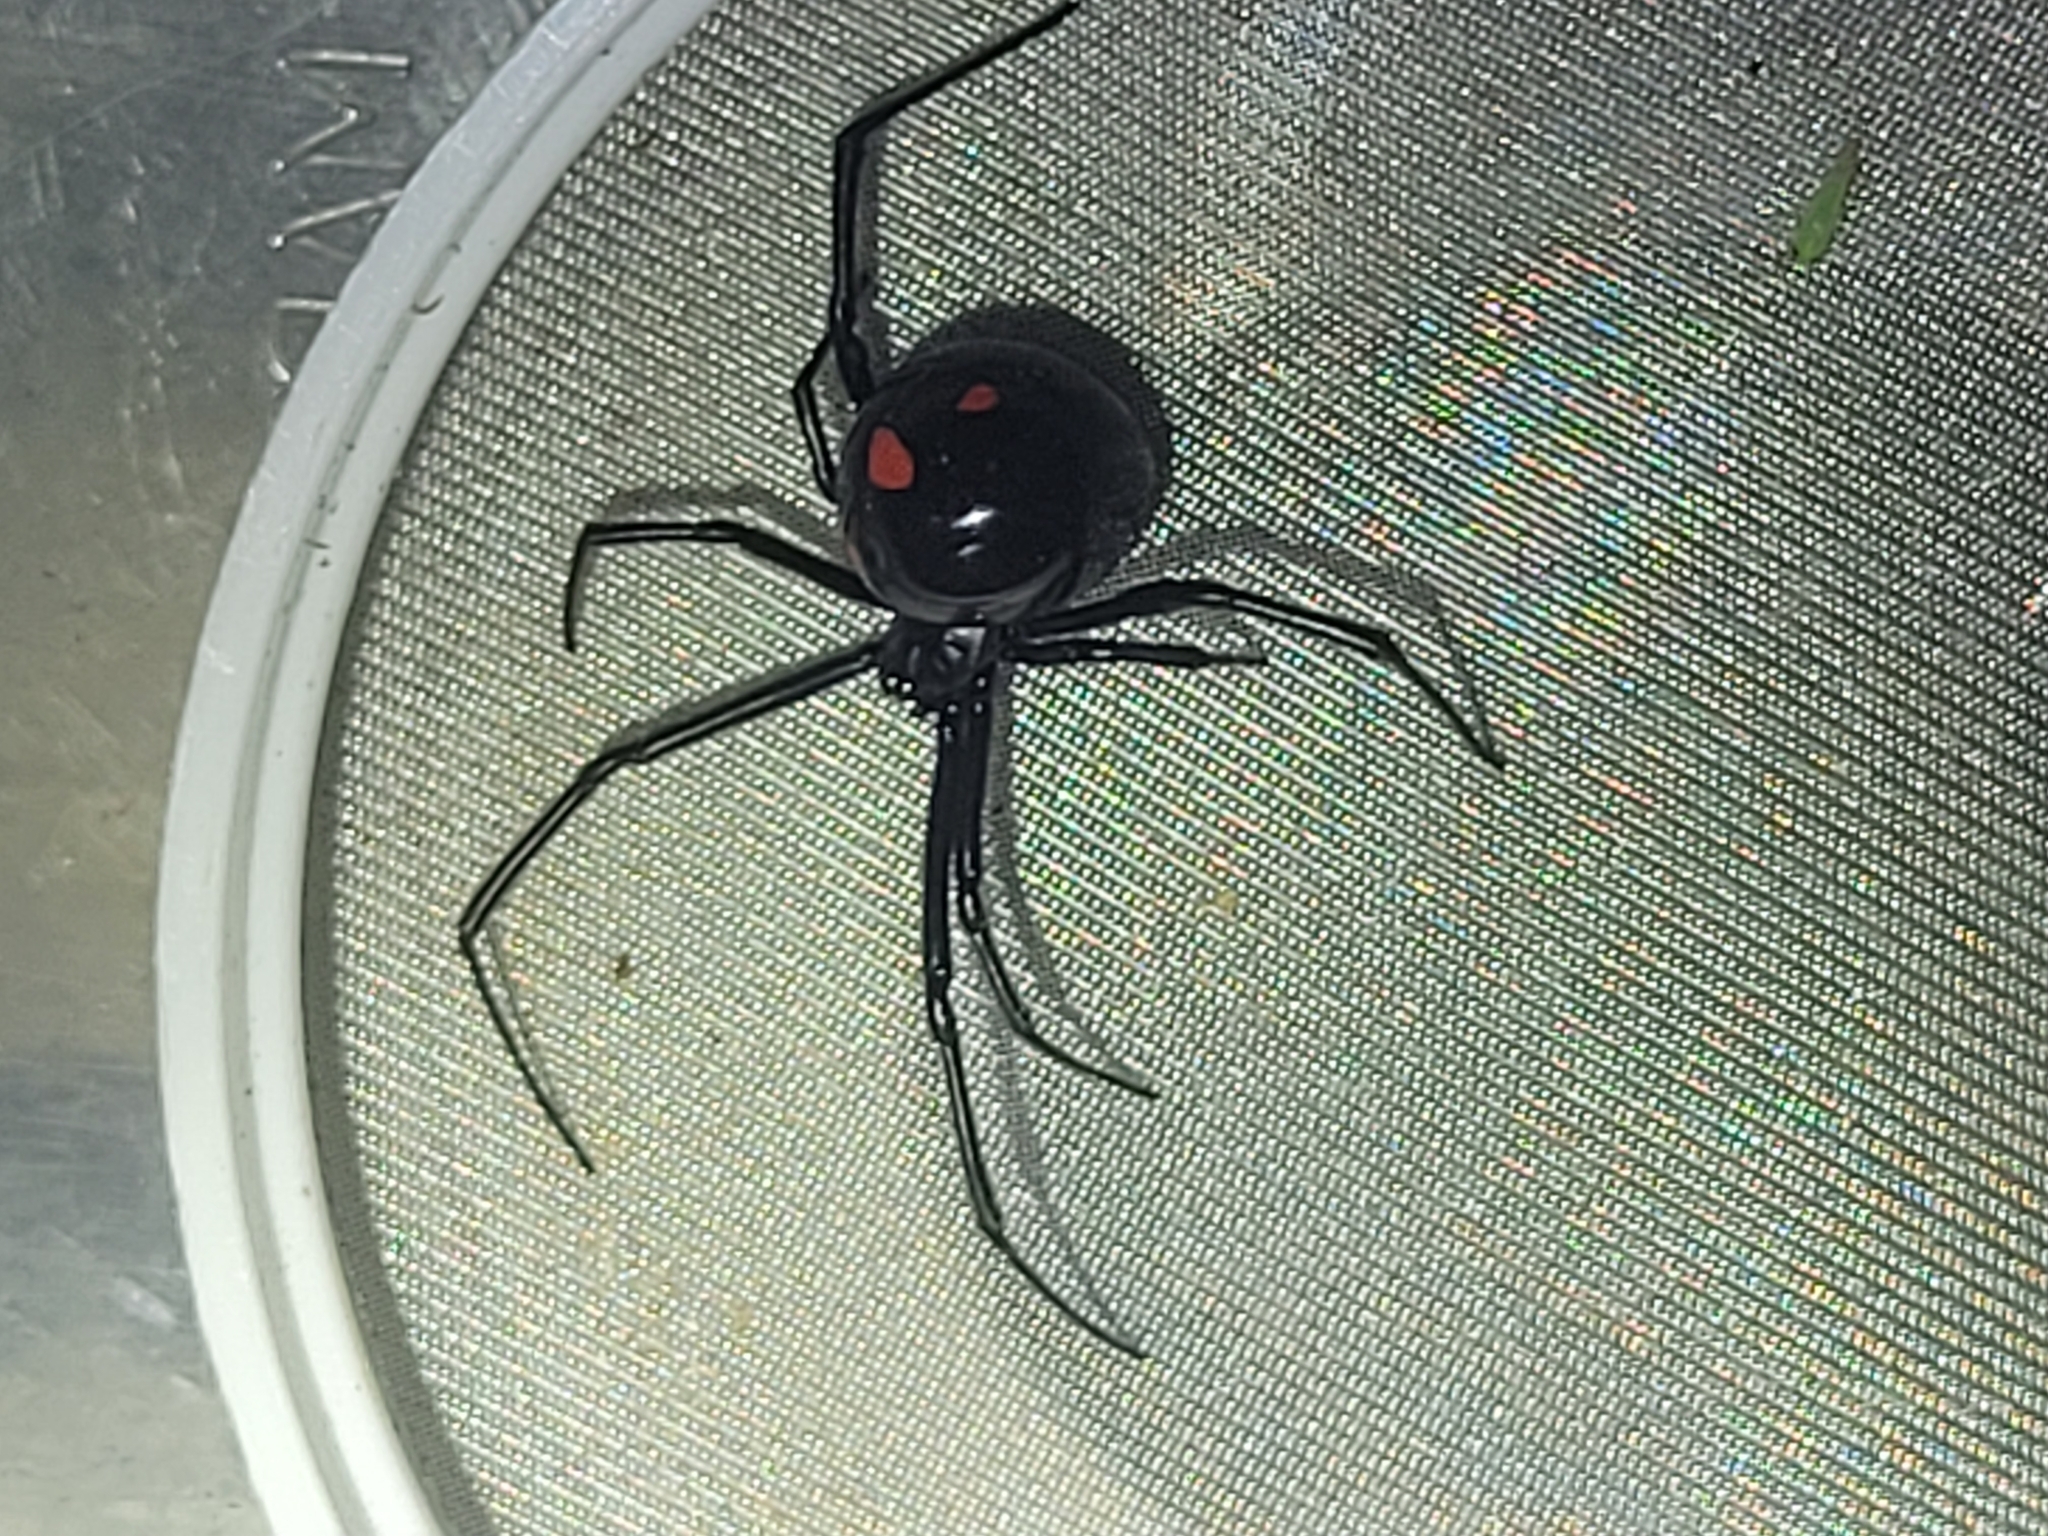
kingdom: Animalia
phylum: Arthropoda
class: Arachnida
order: Araneae
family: Theridiidae
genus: Latrodectus
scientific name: Latrodectus variolus
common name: Northern black widow
